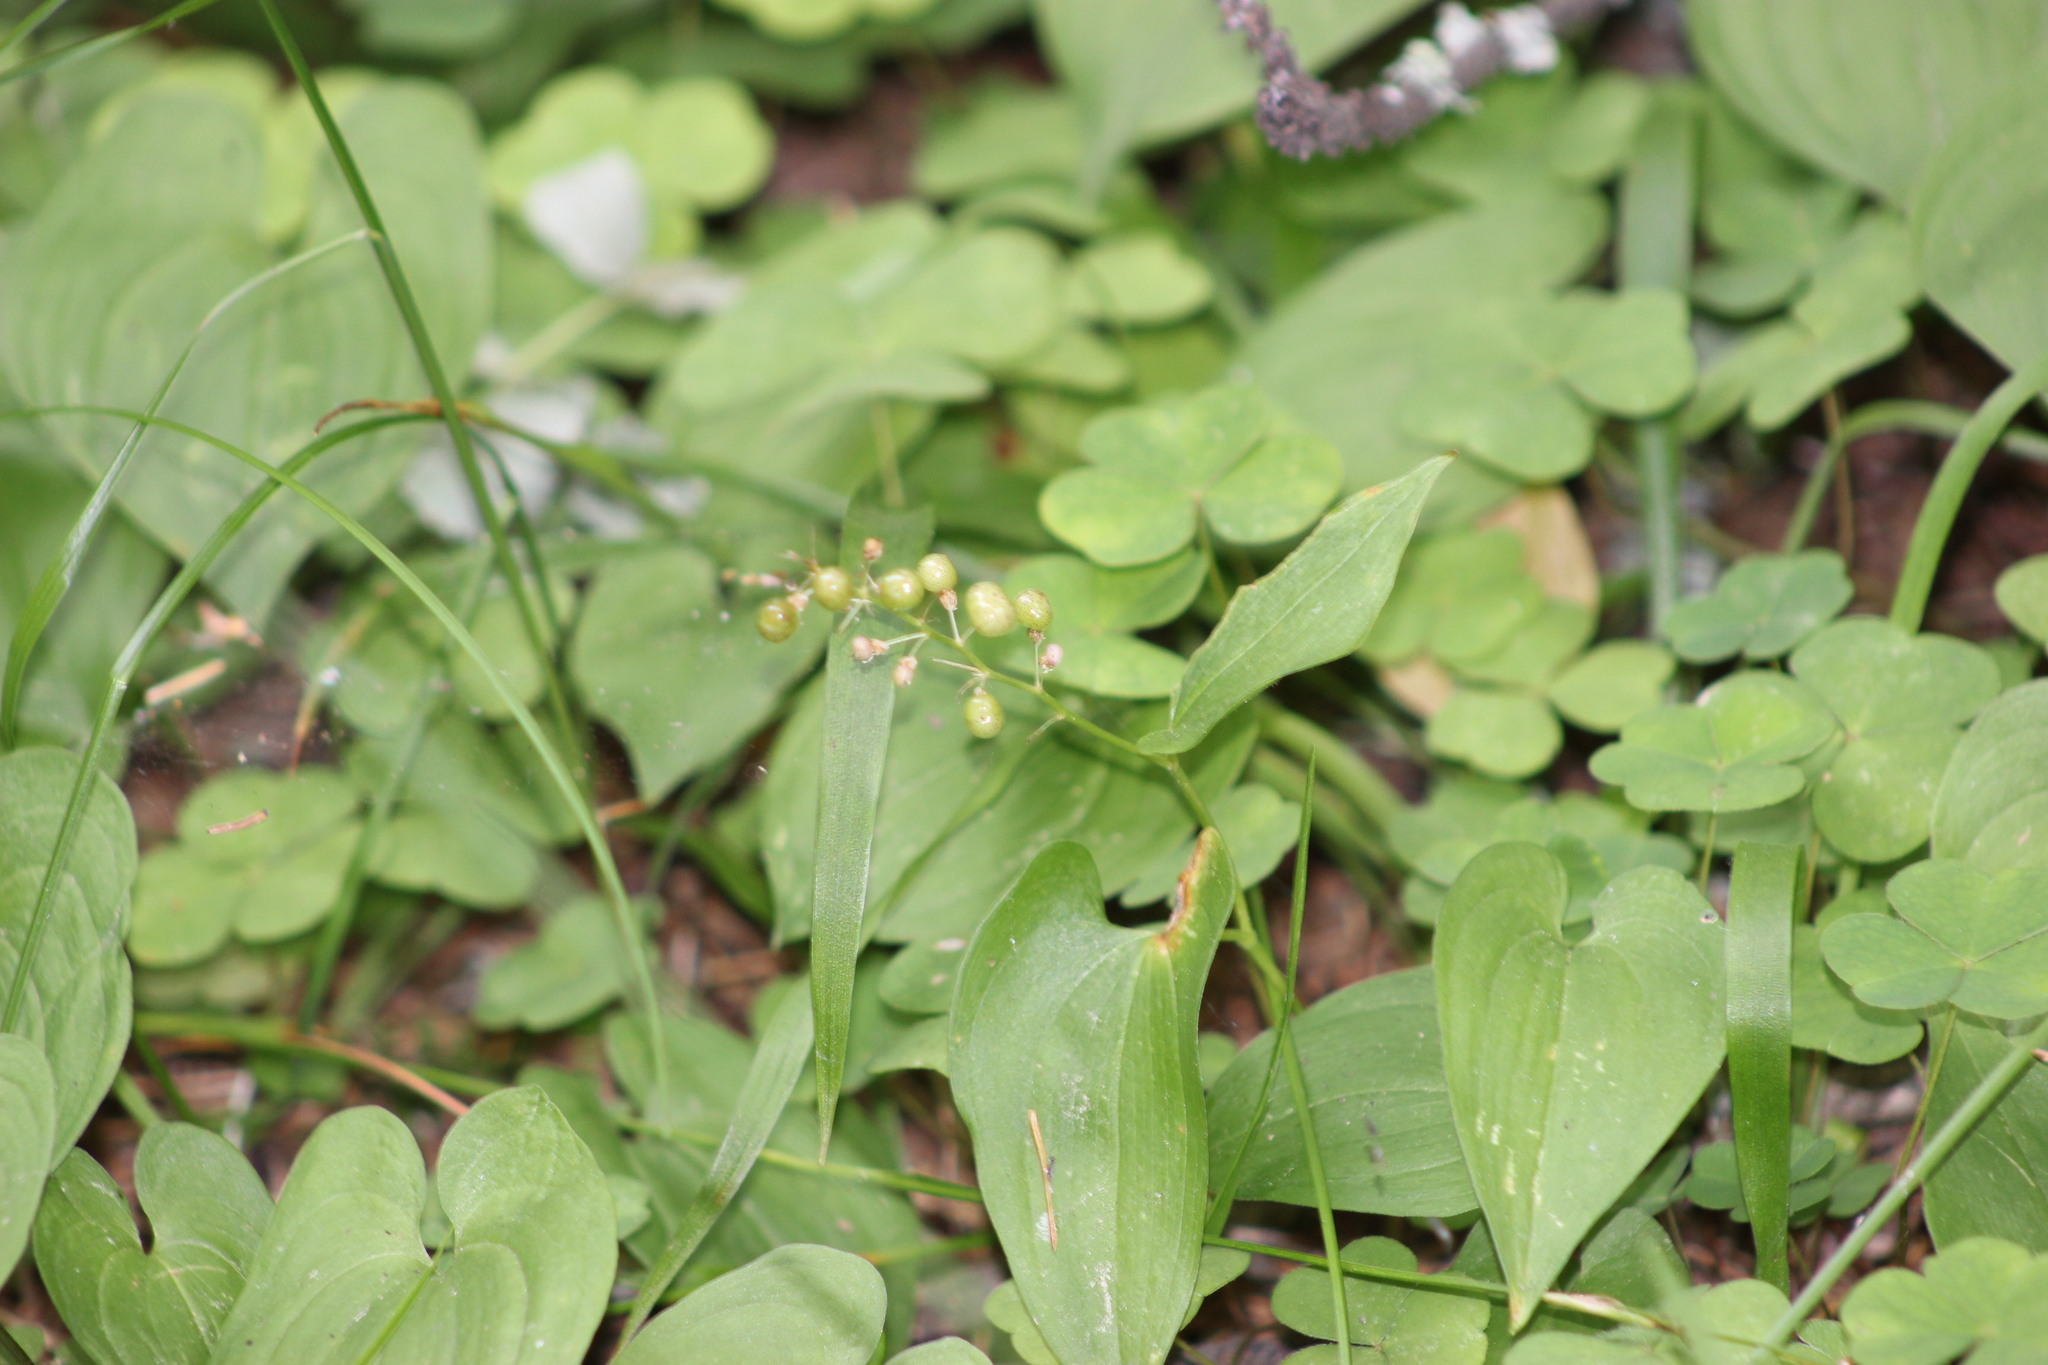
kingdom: Plantae
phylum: Tracheophyta
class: Liliopsida
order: Asparagales
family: Asparagaceae
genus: Maianthemum
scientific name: Maianthemum bifolium
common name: May lily
